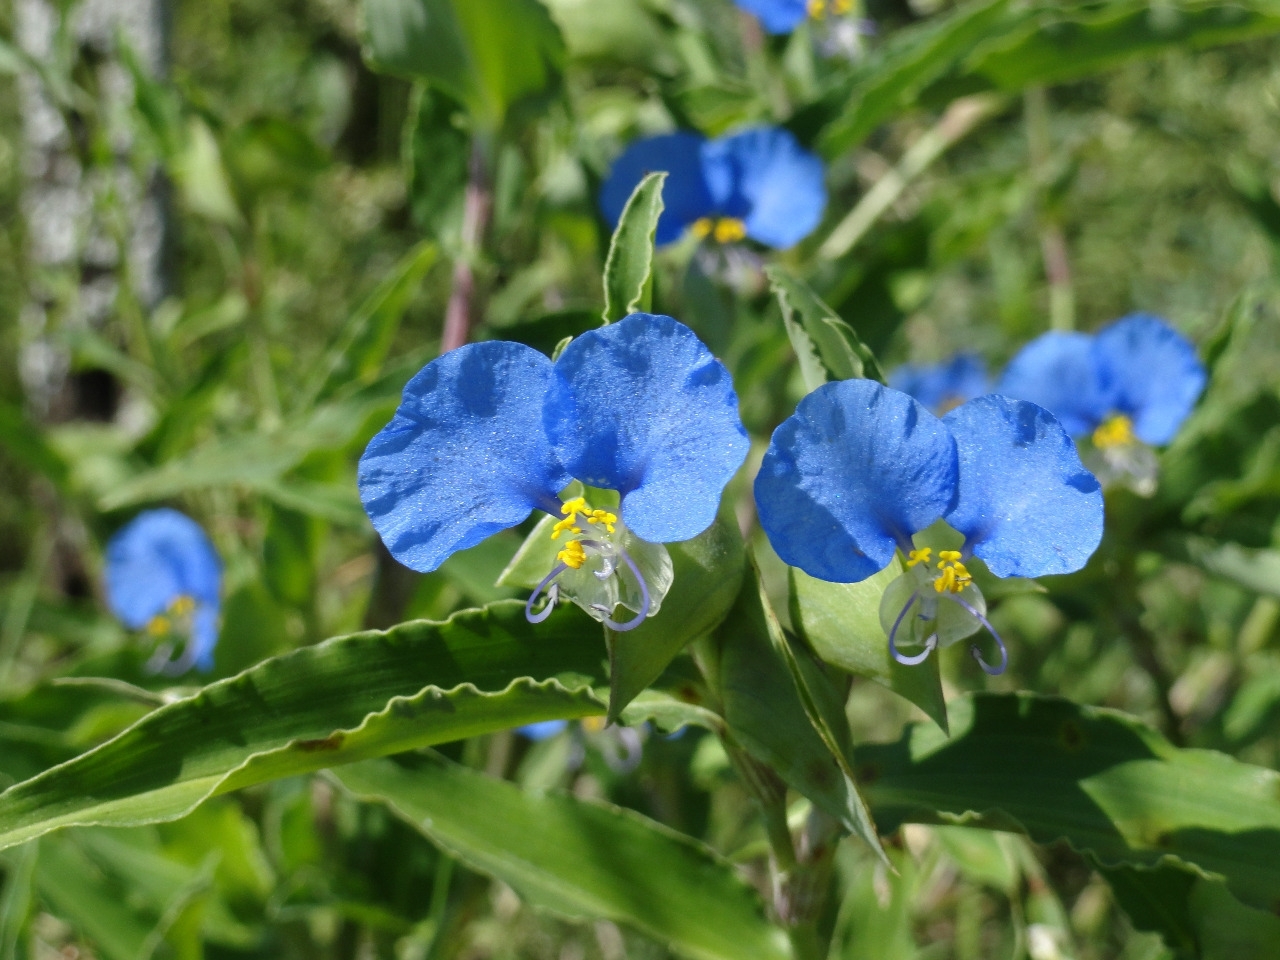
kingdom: Plantae
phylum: Tracheophyta
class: Liliopsida
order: Commelinales
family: Commelinaceae
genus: Commelina
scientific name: Commelina erecta
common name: Blousel blommetjie
